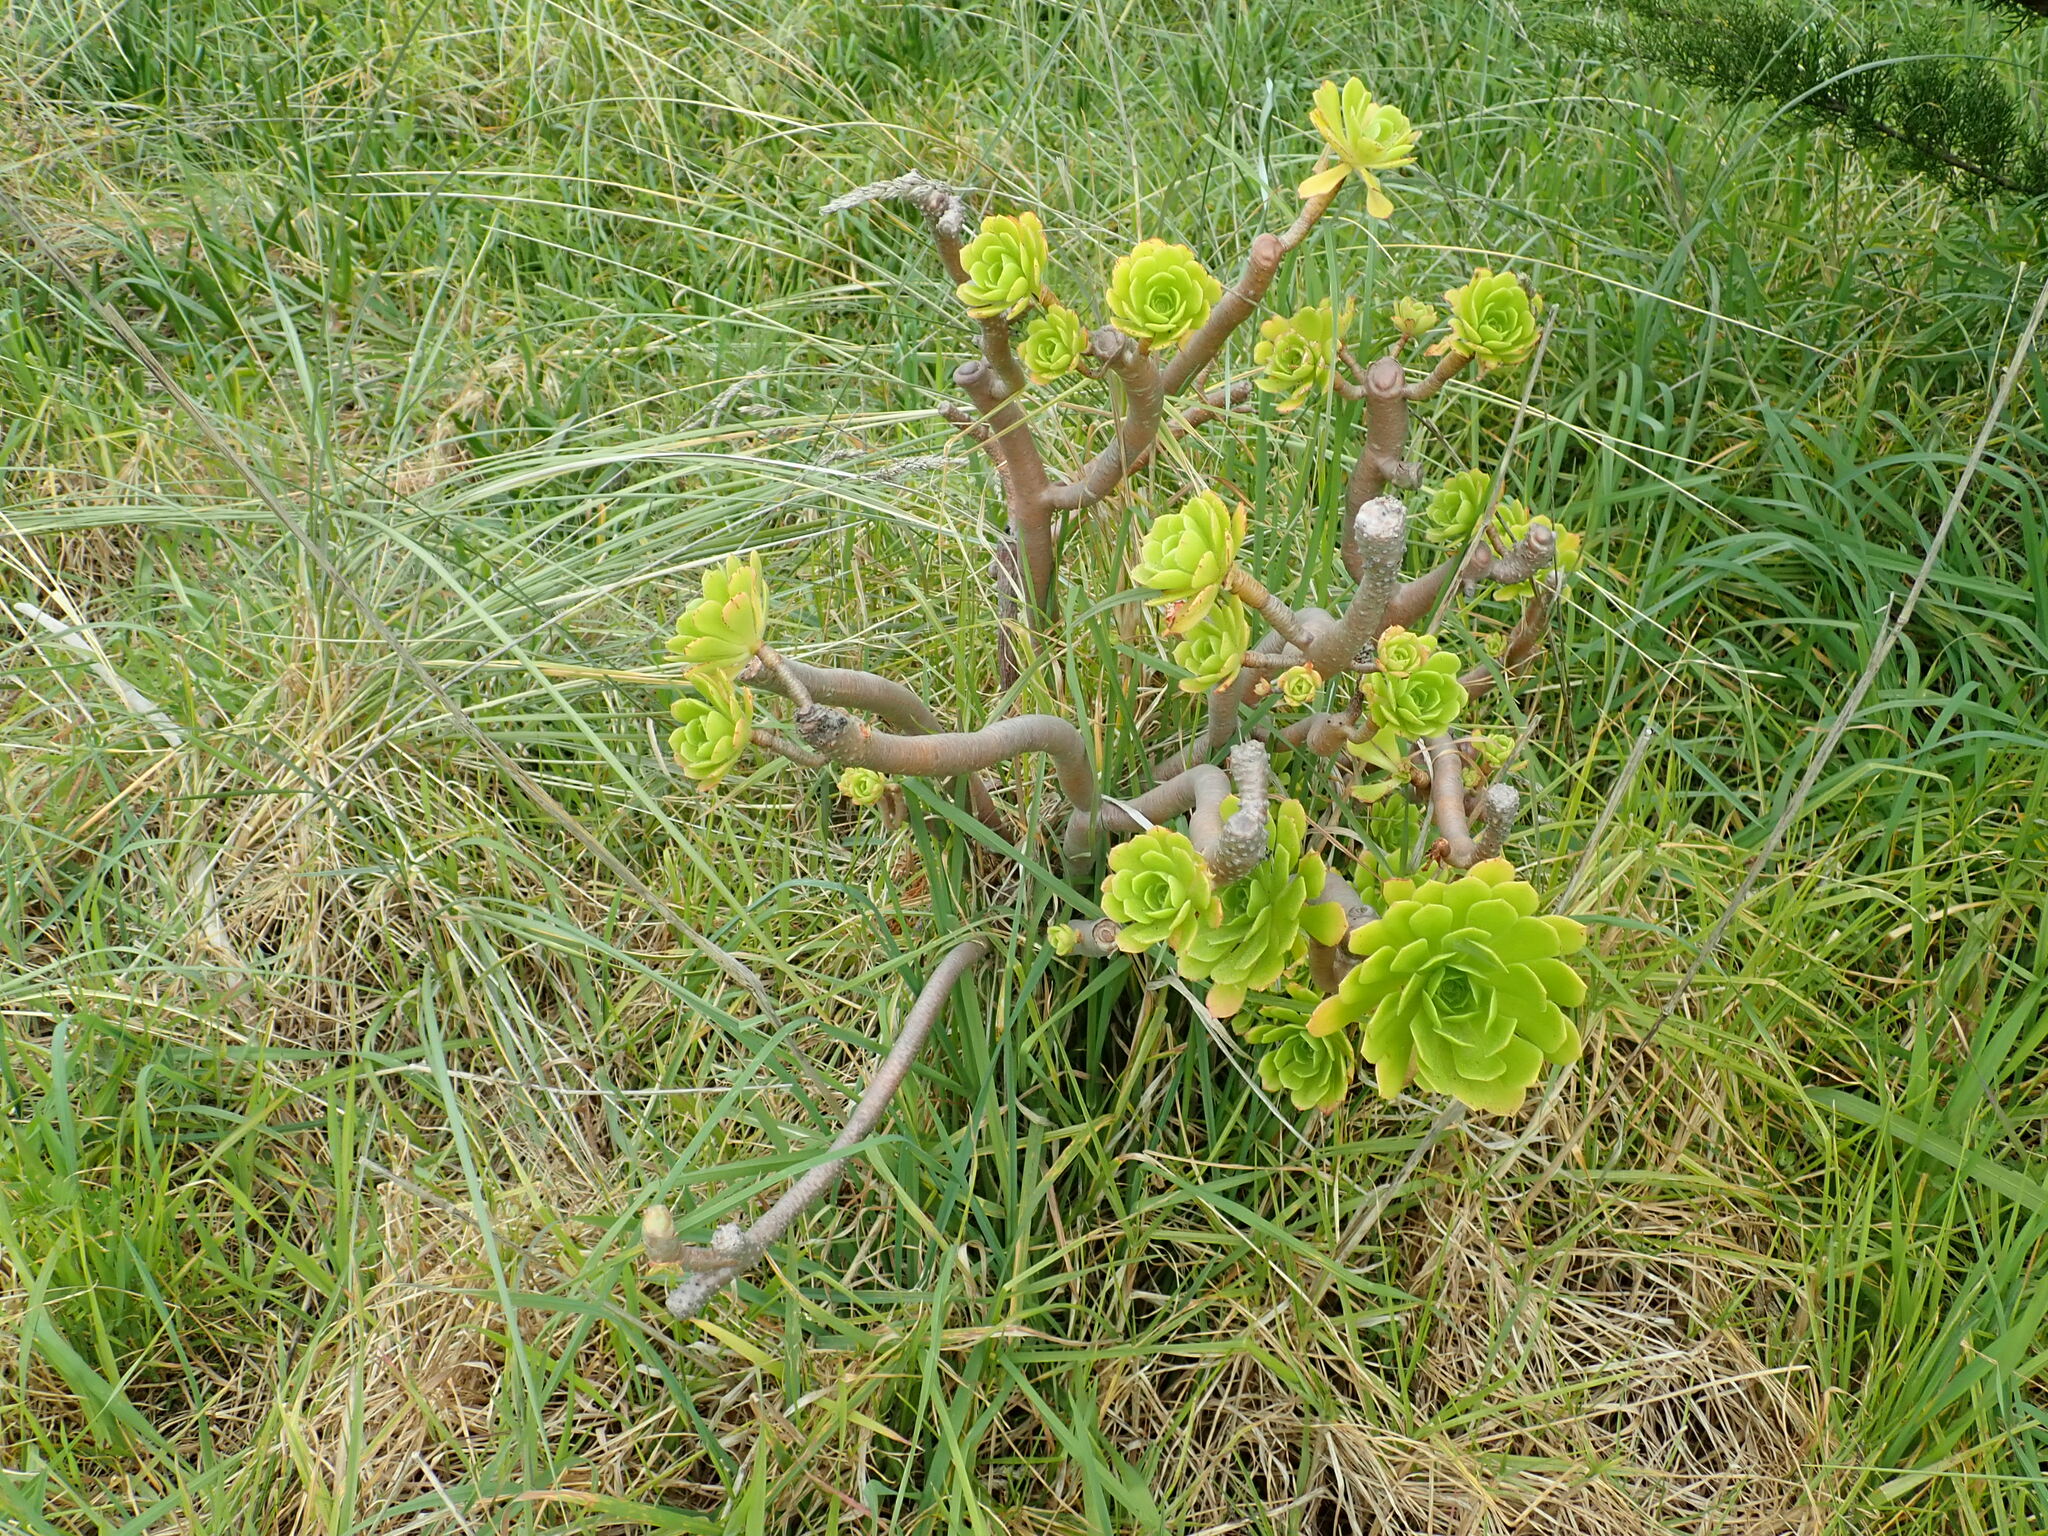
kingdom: Plantae
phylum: Tracheophyta
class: Magnoliopsida
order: Saxifragales
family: Crassulaceae
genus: Aeonium
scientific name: Aeonium arboreum
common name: Tree aeonium
